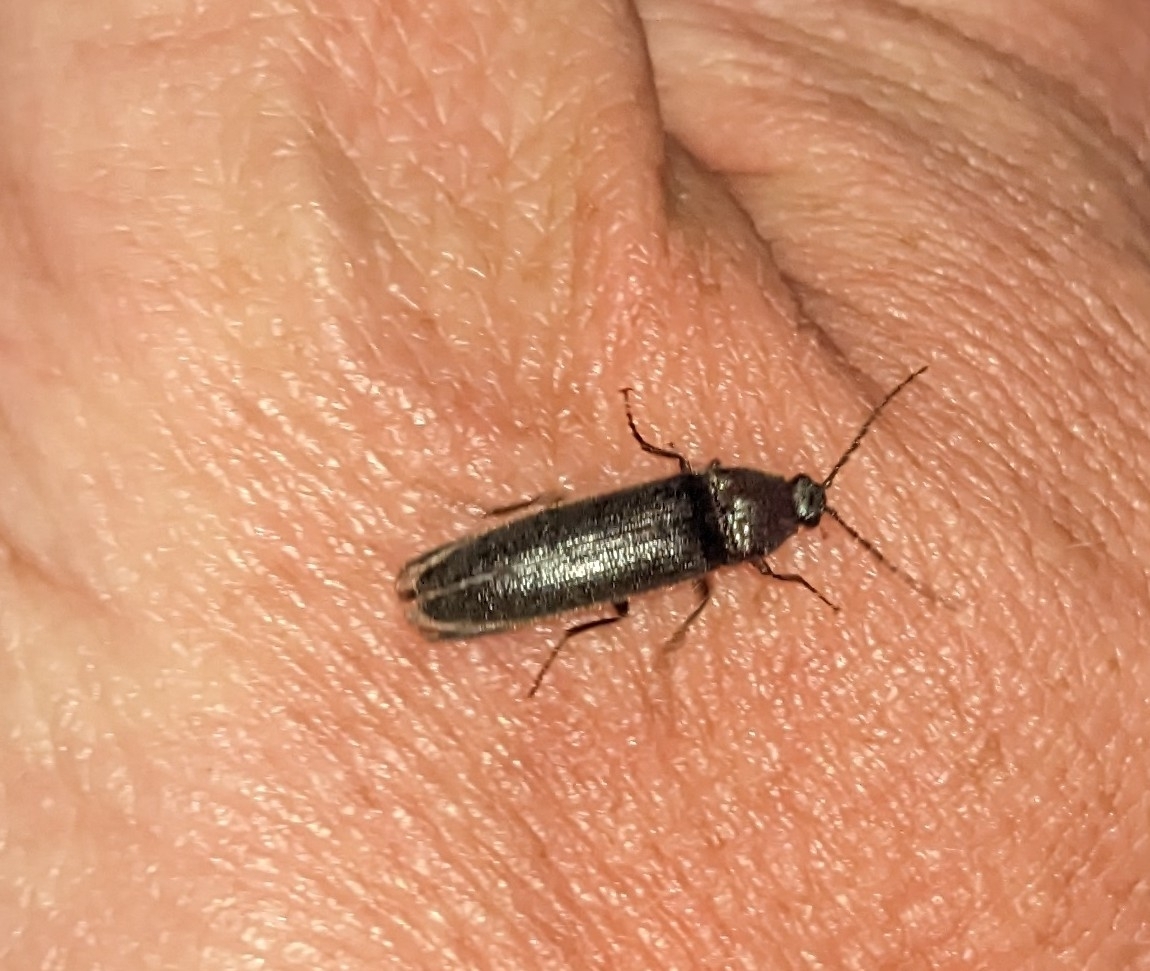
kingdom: Animalia
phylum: Arthropoda
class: Insecta
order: Coleoptera
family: Elateridae
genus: Melanotus
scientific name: Melanotus castanipes
